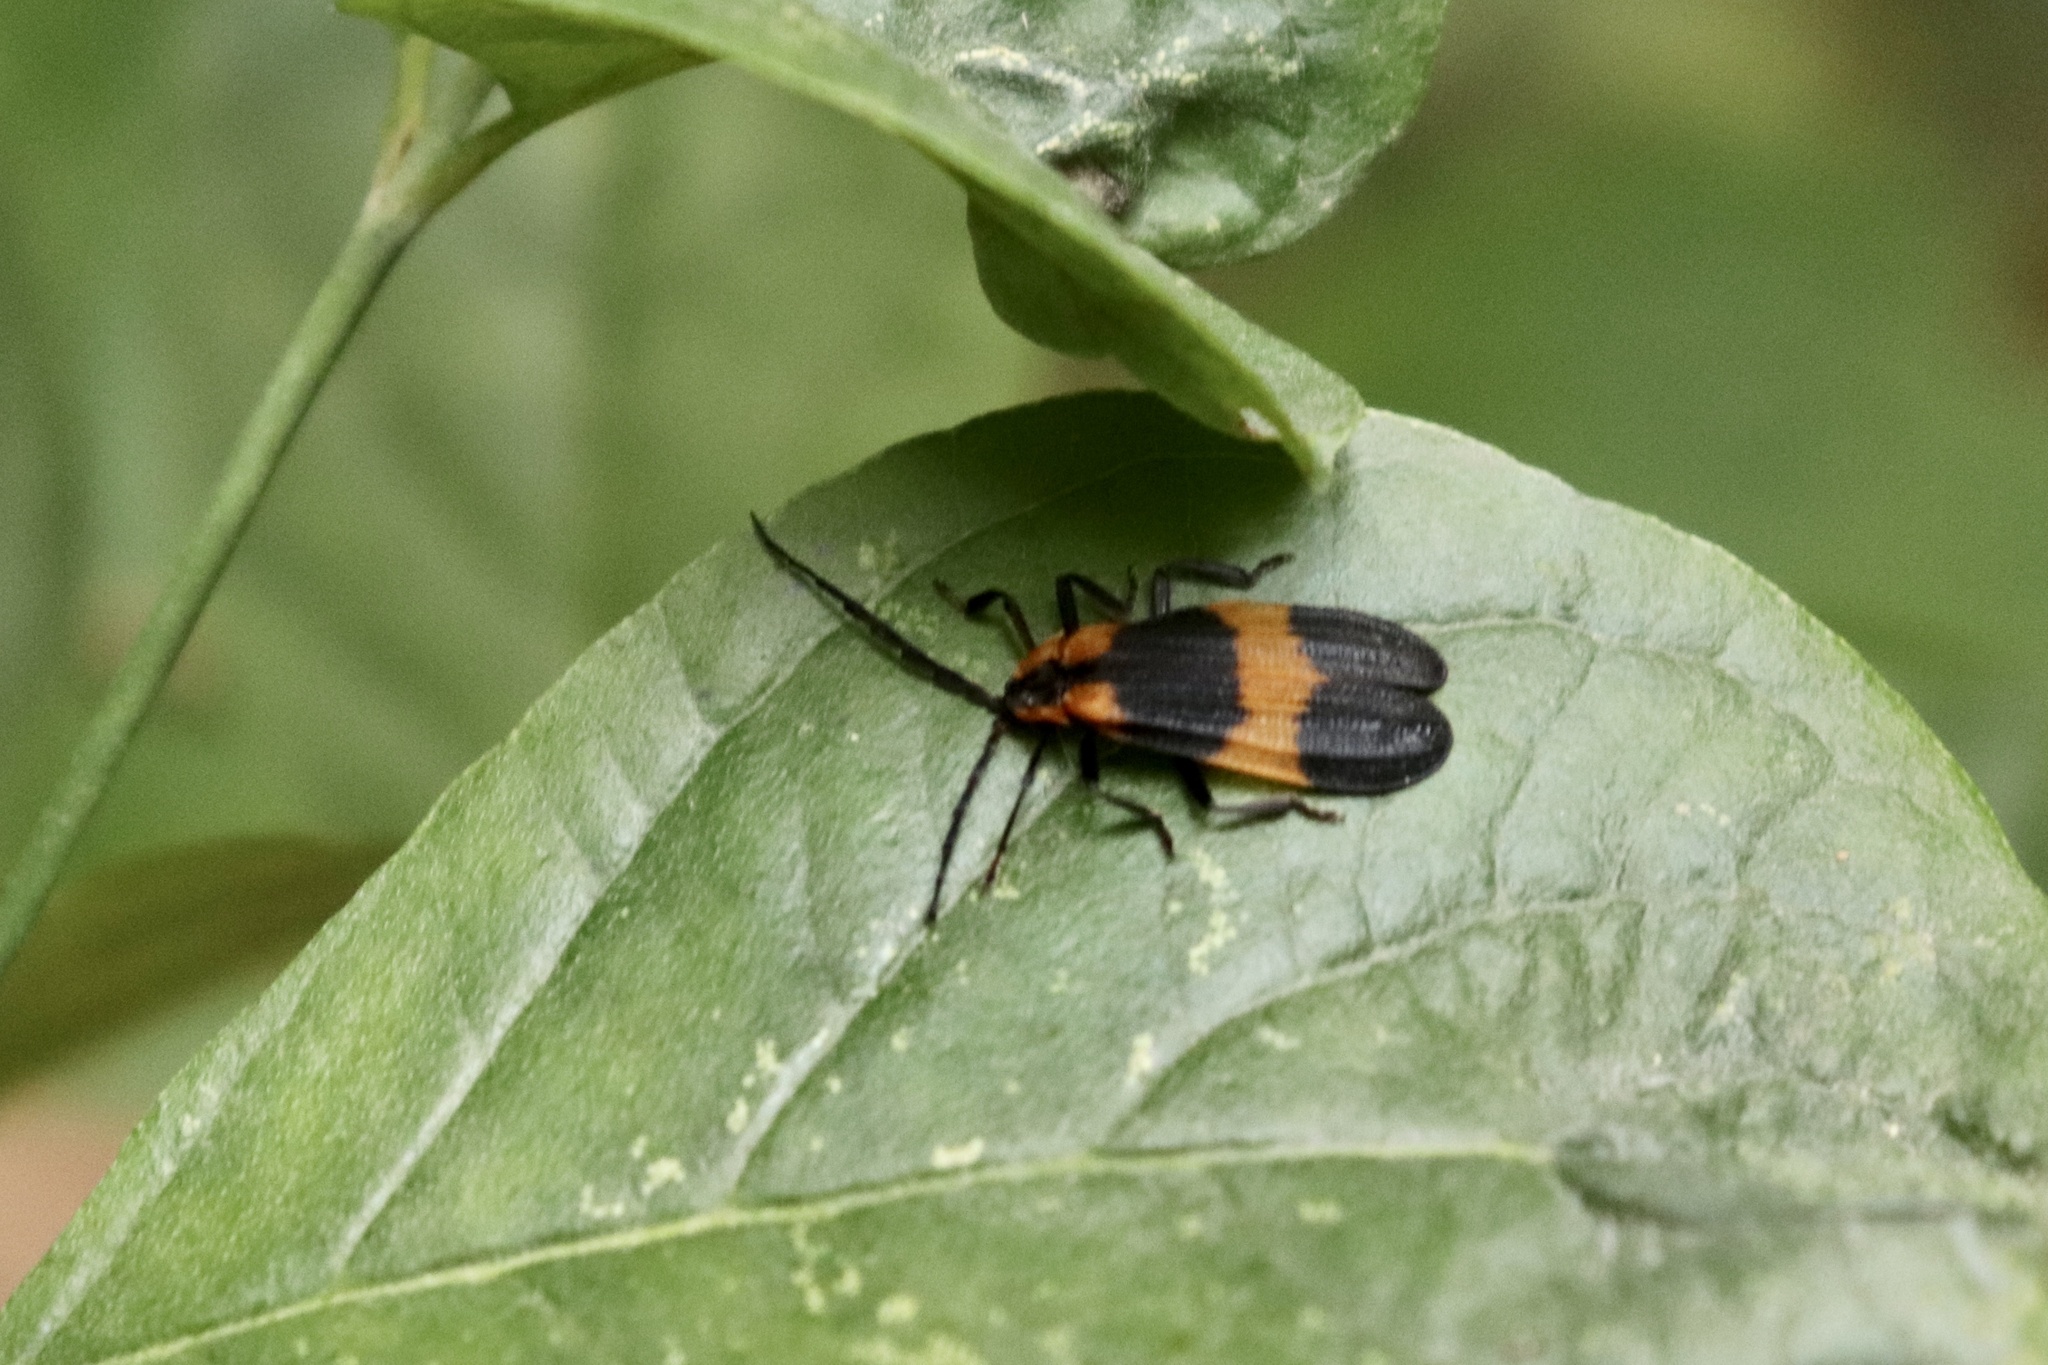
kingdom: Animalia
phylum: Arthropoda
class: Insecta
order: Coleoptera
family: Lycidae
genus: Calopteron
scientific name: Calopteron reticulatum
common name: Banded net-winged beetle
